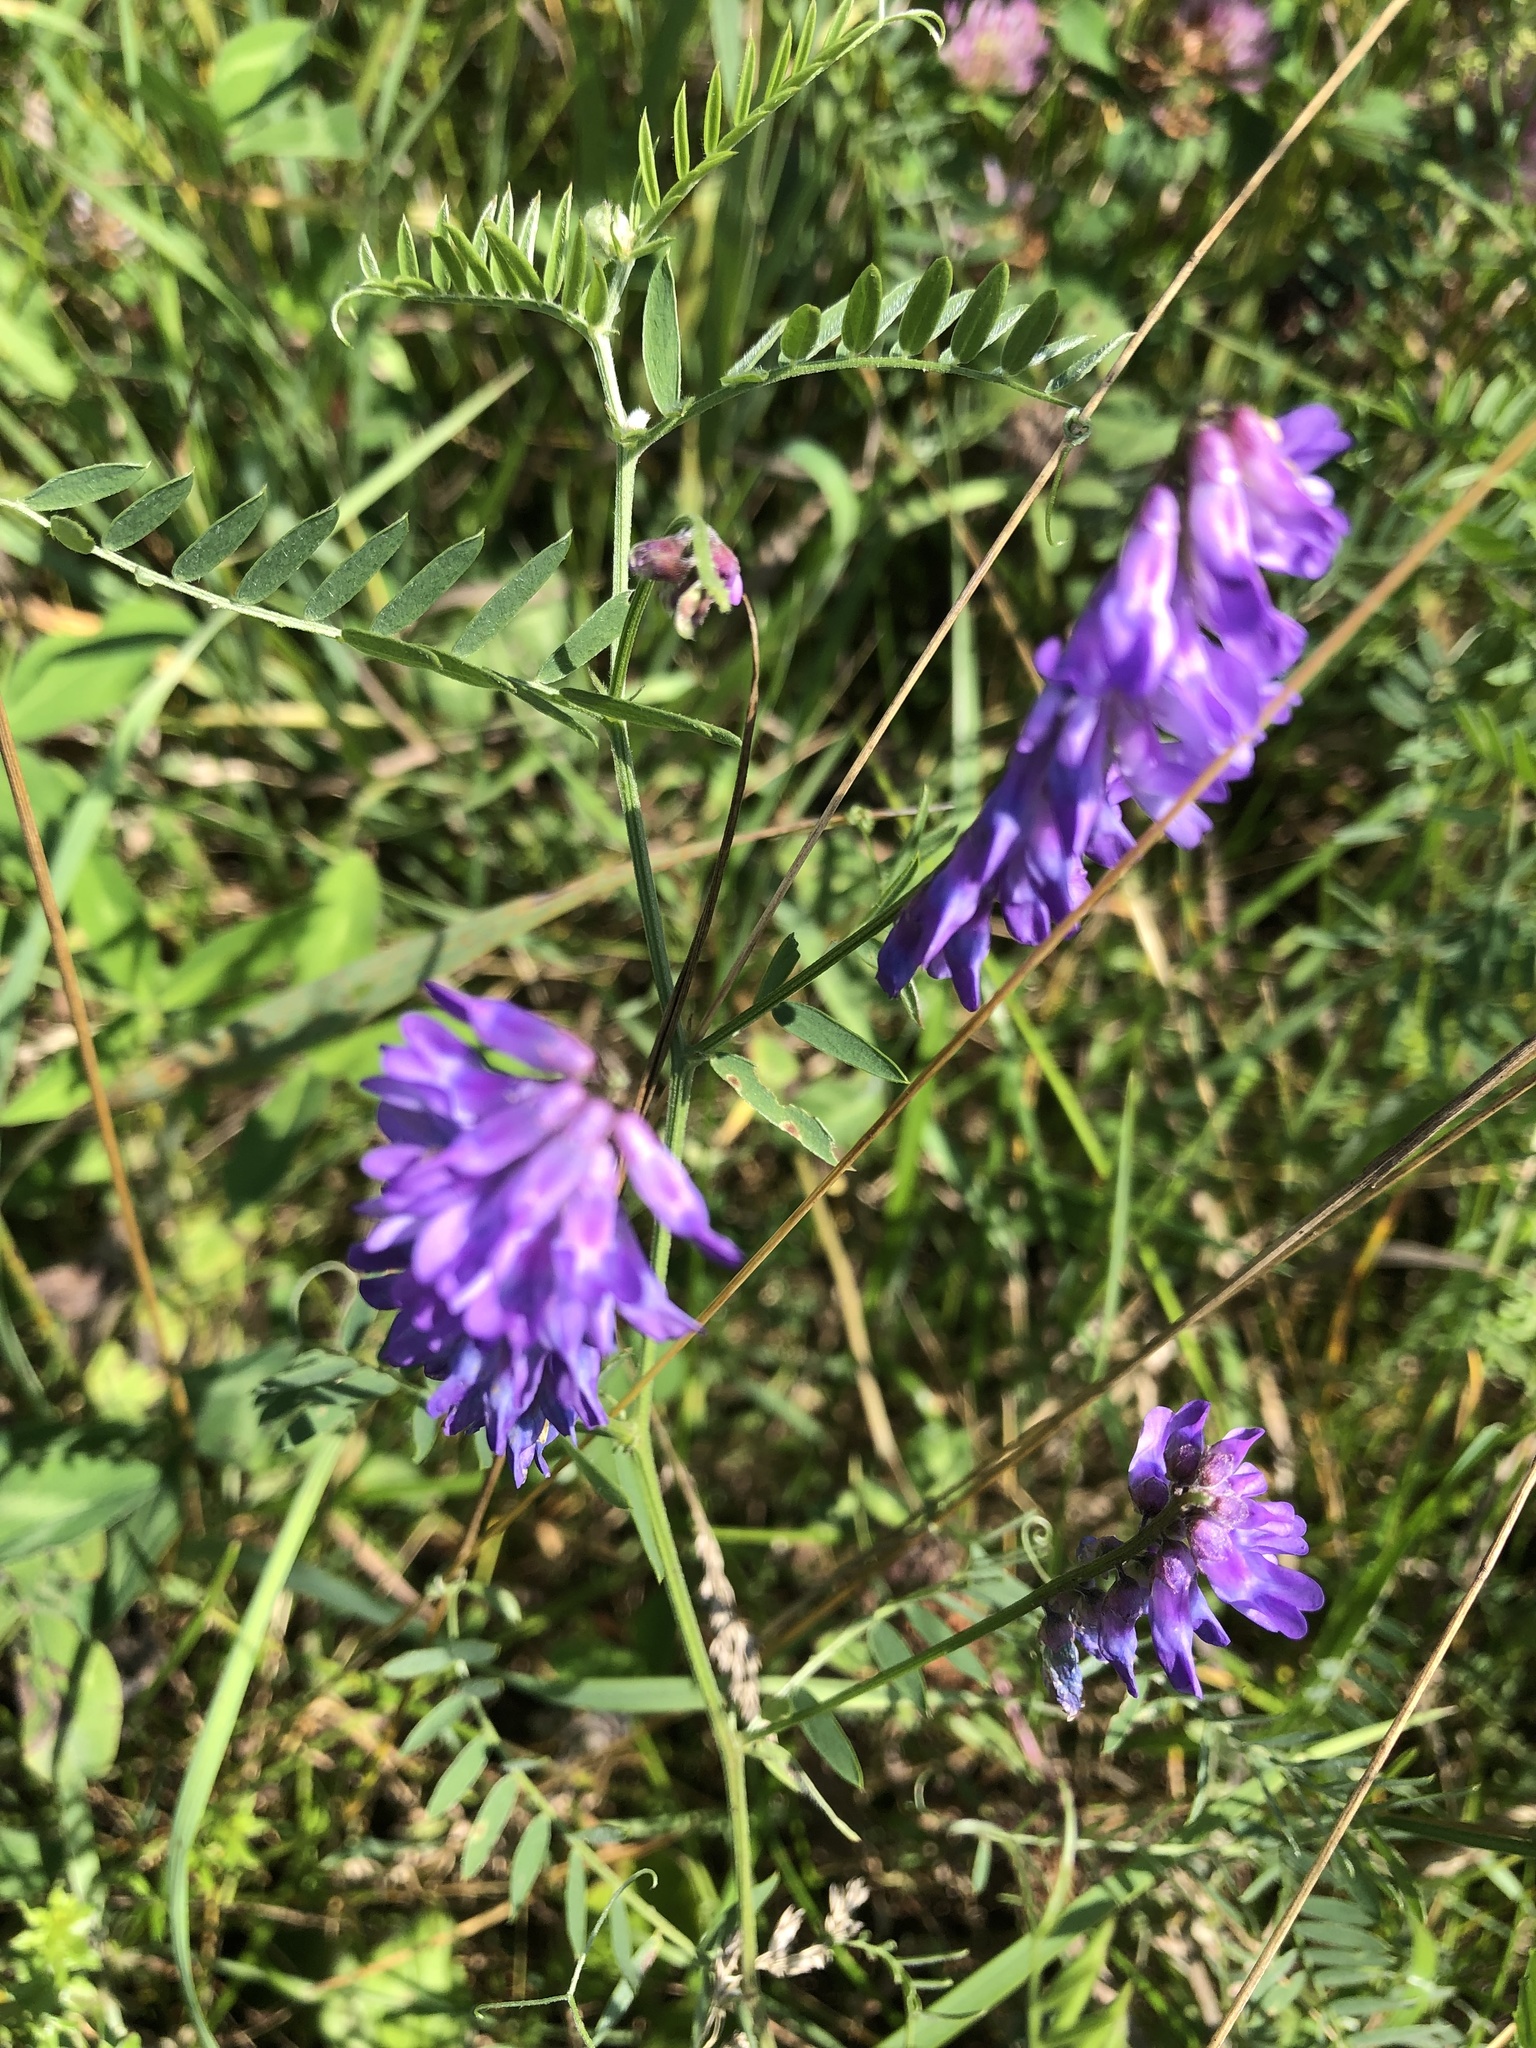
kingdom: Plantae
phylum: Tracheophyta
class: Magnoliopsida
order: Fabales
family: Fabaceae
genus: Vicia
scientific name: Vicia cracca
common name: Bird vetch
